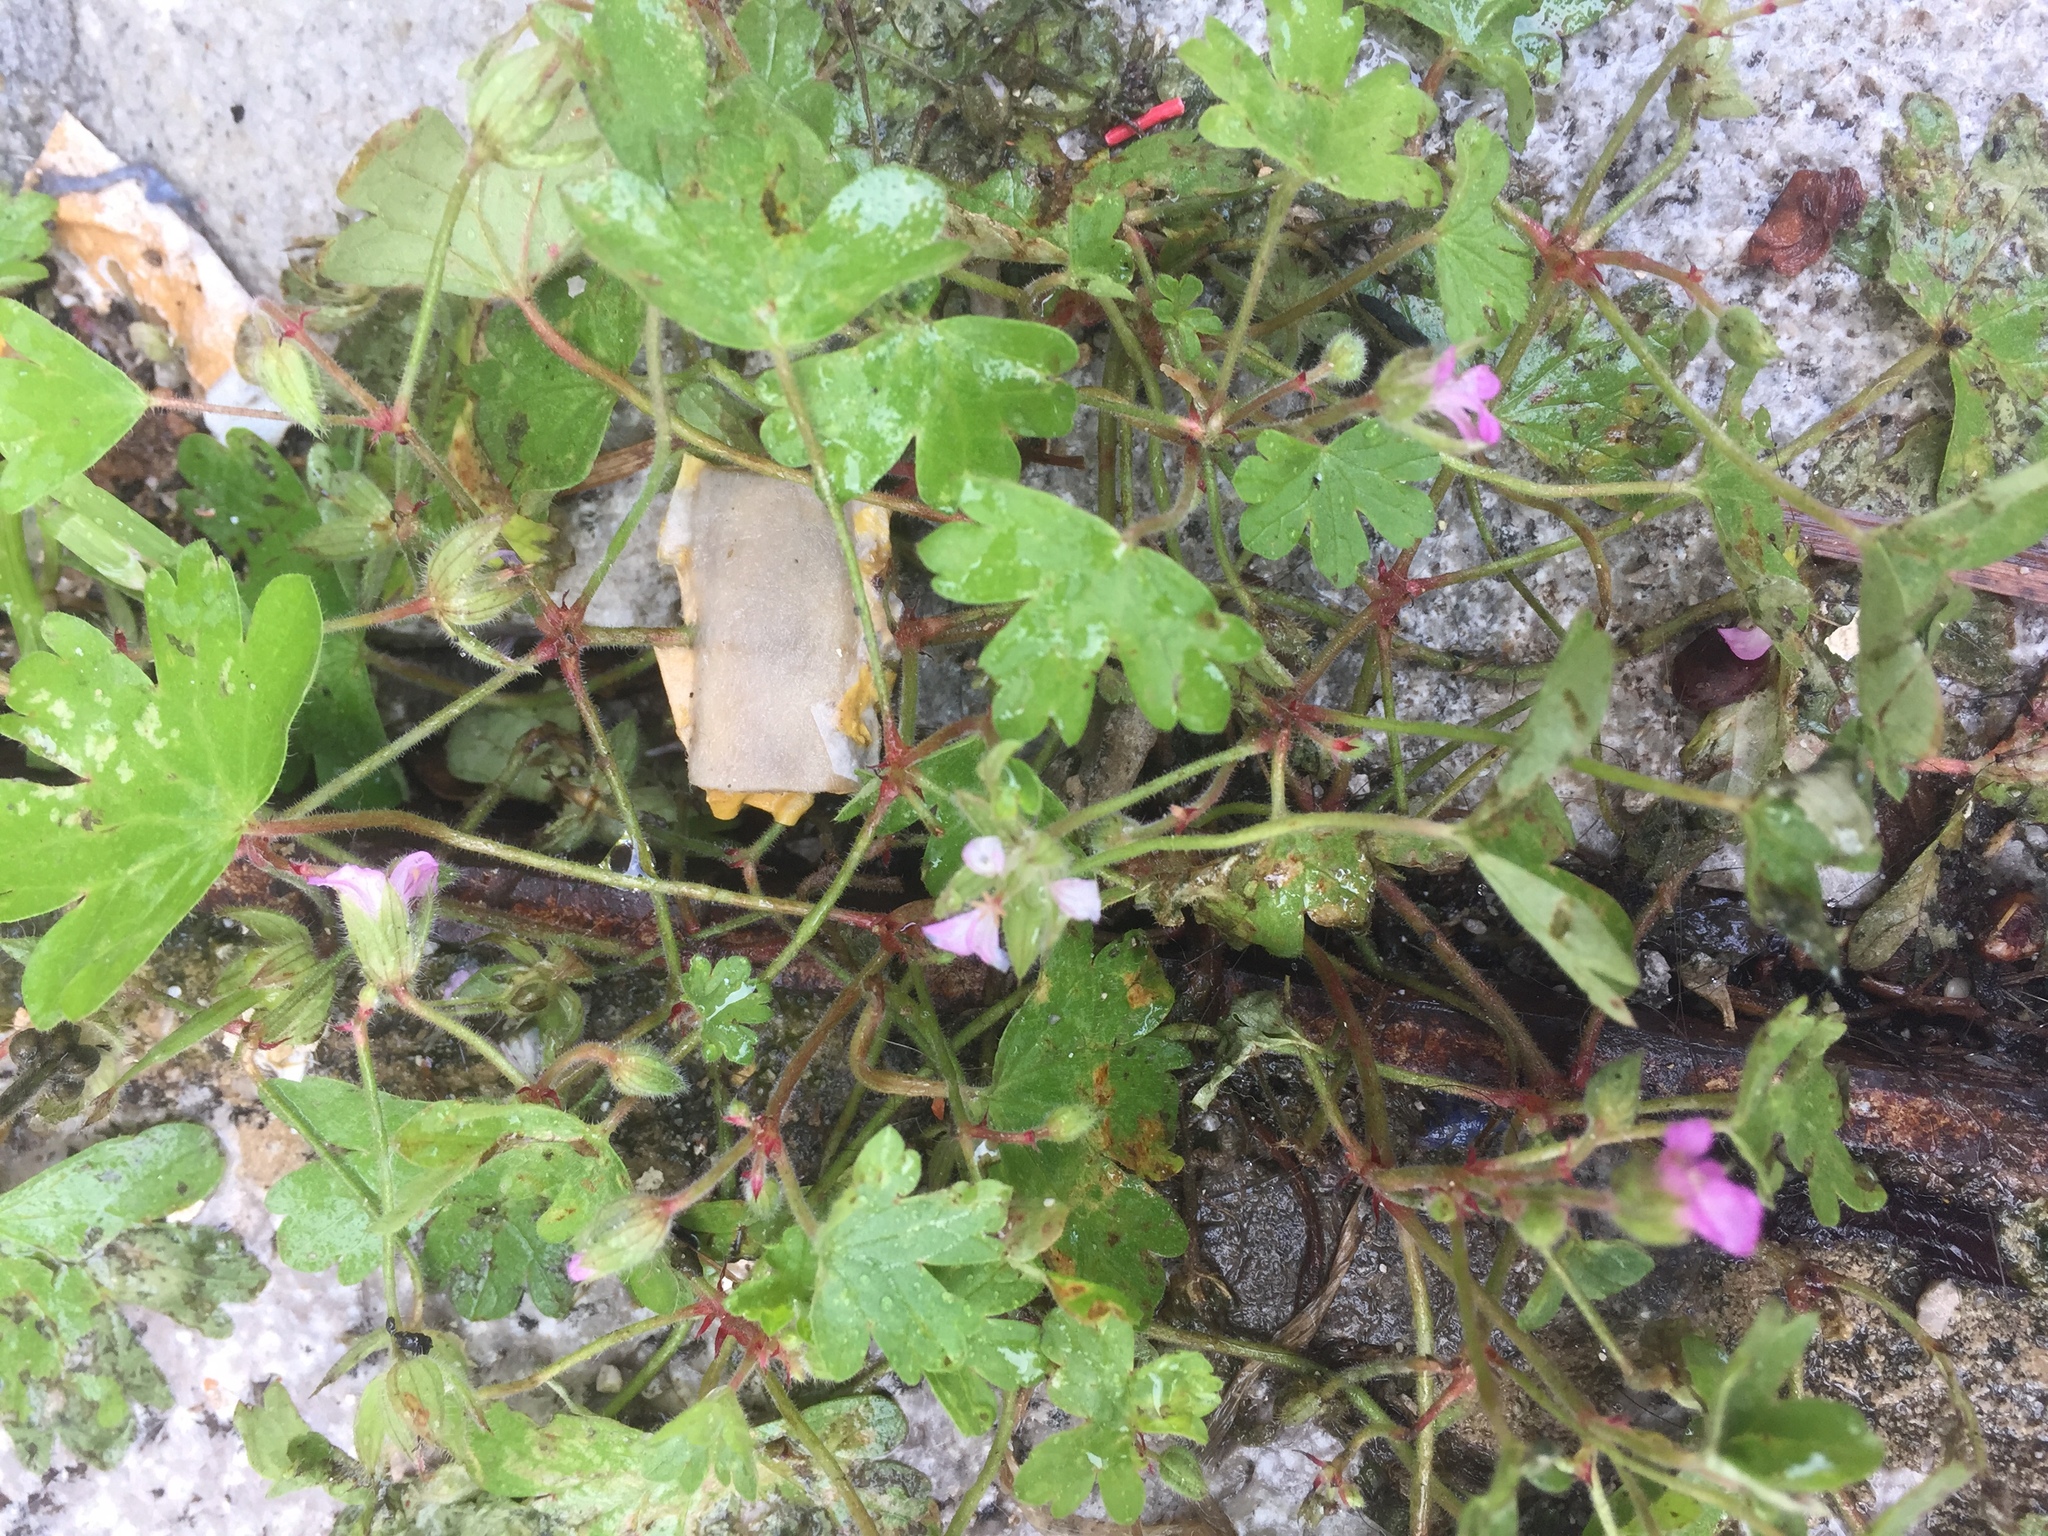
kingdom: Plantae
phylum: Tracheophyta
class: Magnoliopsida
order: Geraniales
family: Geraniaceae
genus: Geranium
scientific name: Geranium rotundifolium
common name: Round-leaved crane's-bill
